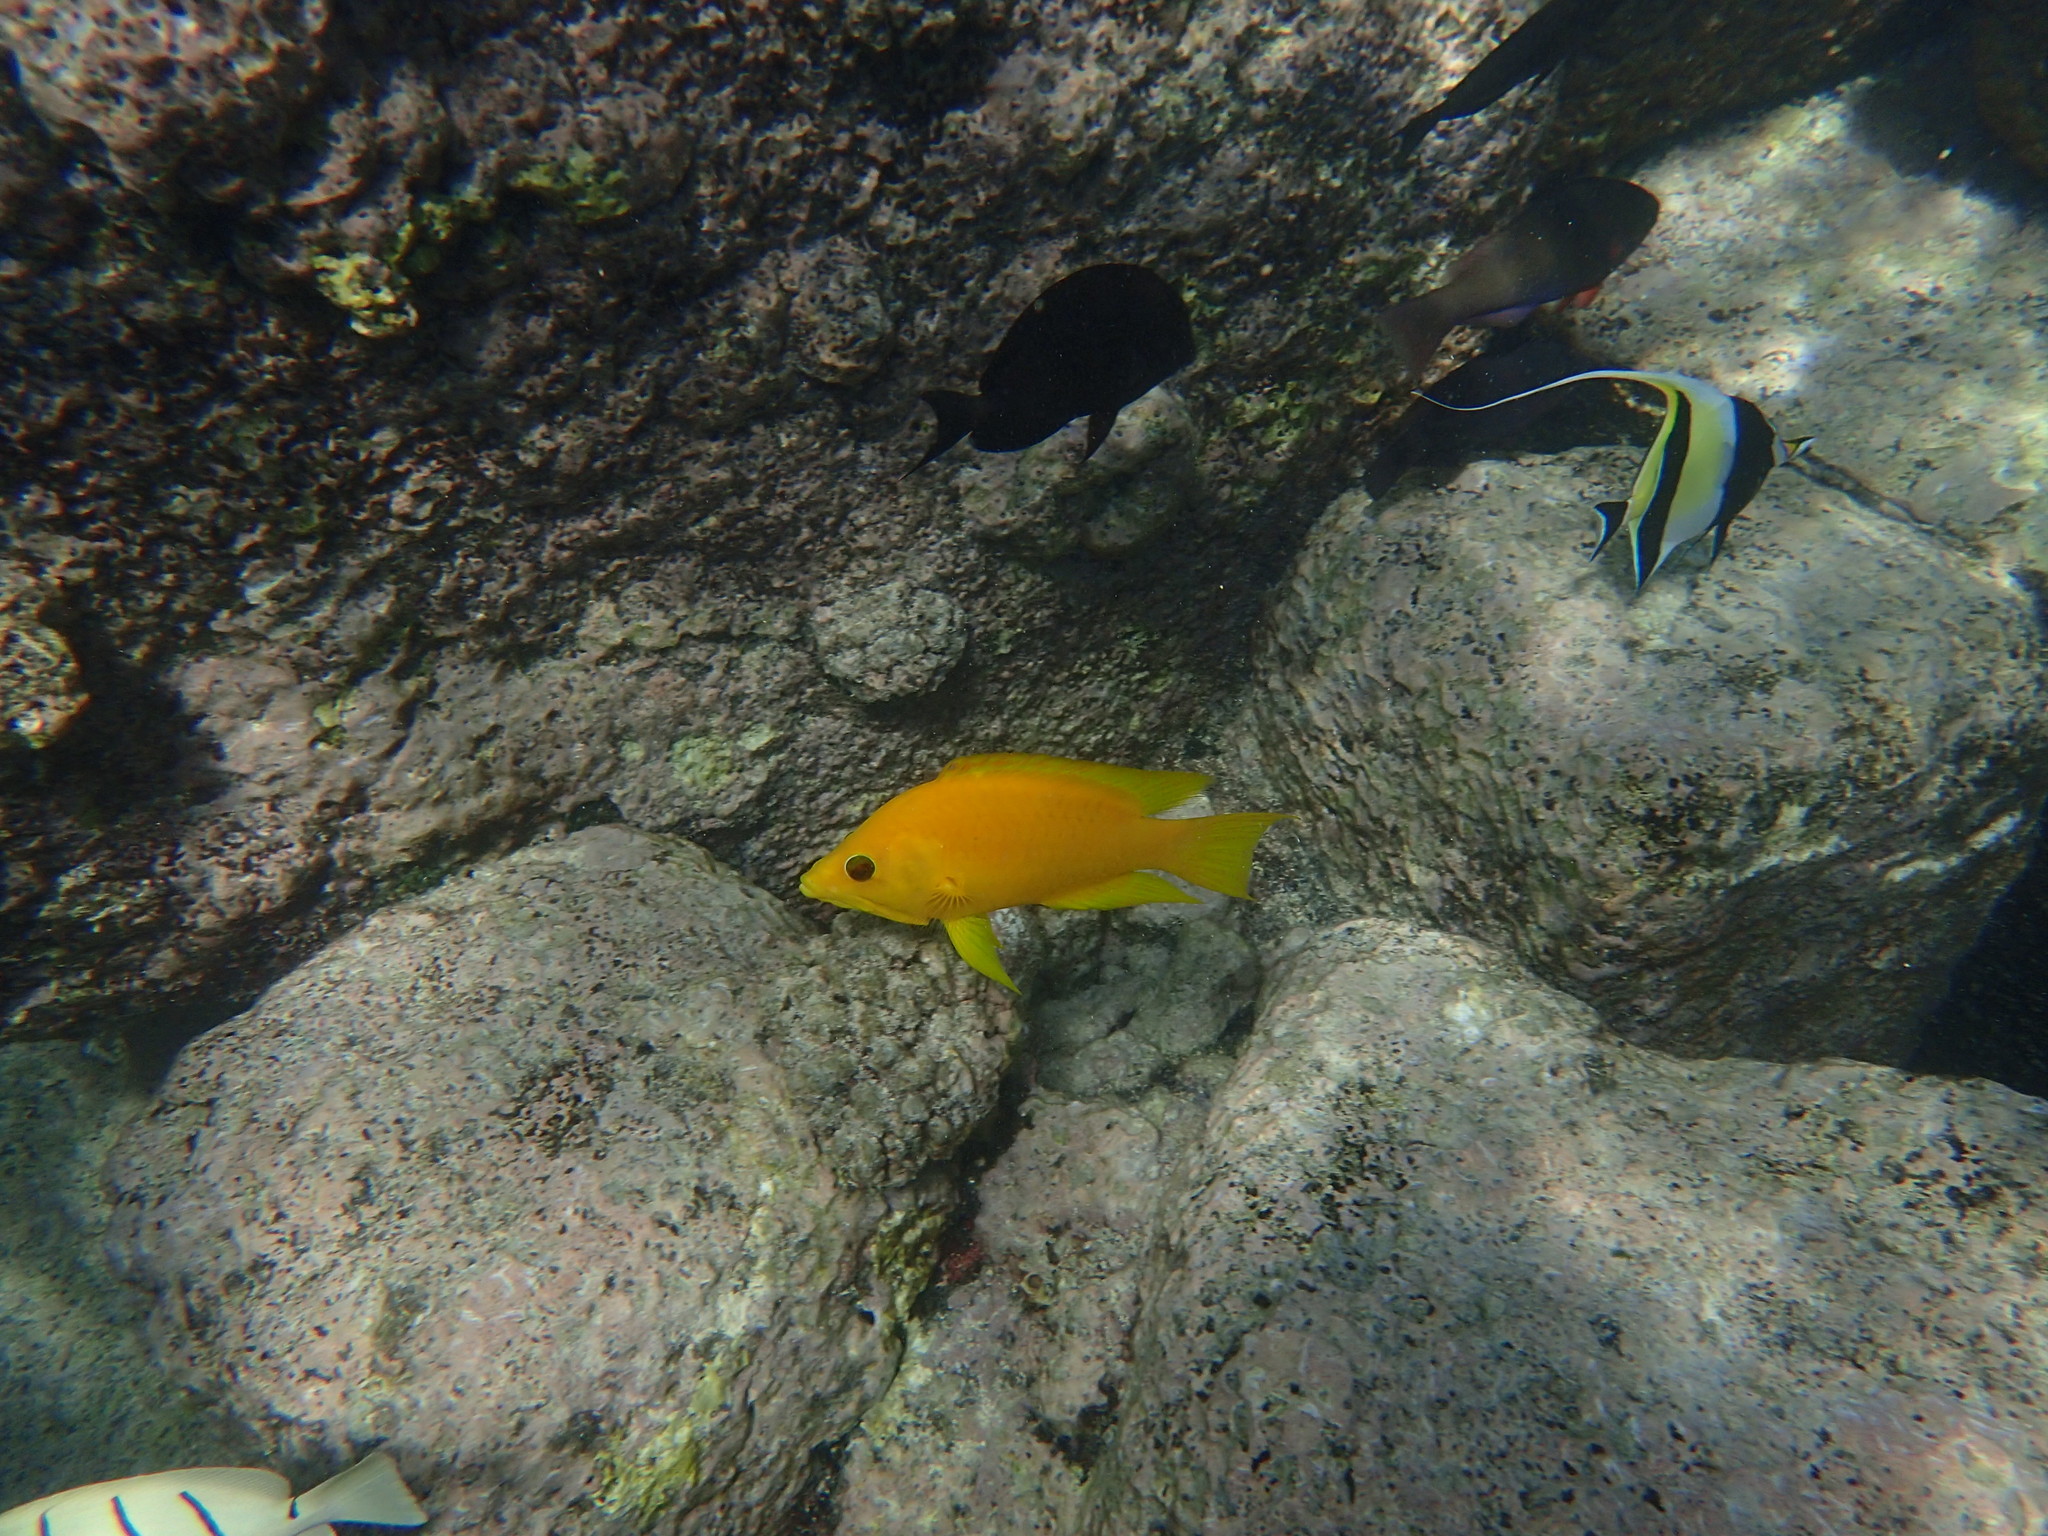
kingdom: Animalia
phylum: Chordata
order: Perciformes
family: Labridae
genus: Epibulus
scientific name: Epibulus insidiator
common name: Slingjaw wrasse
